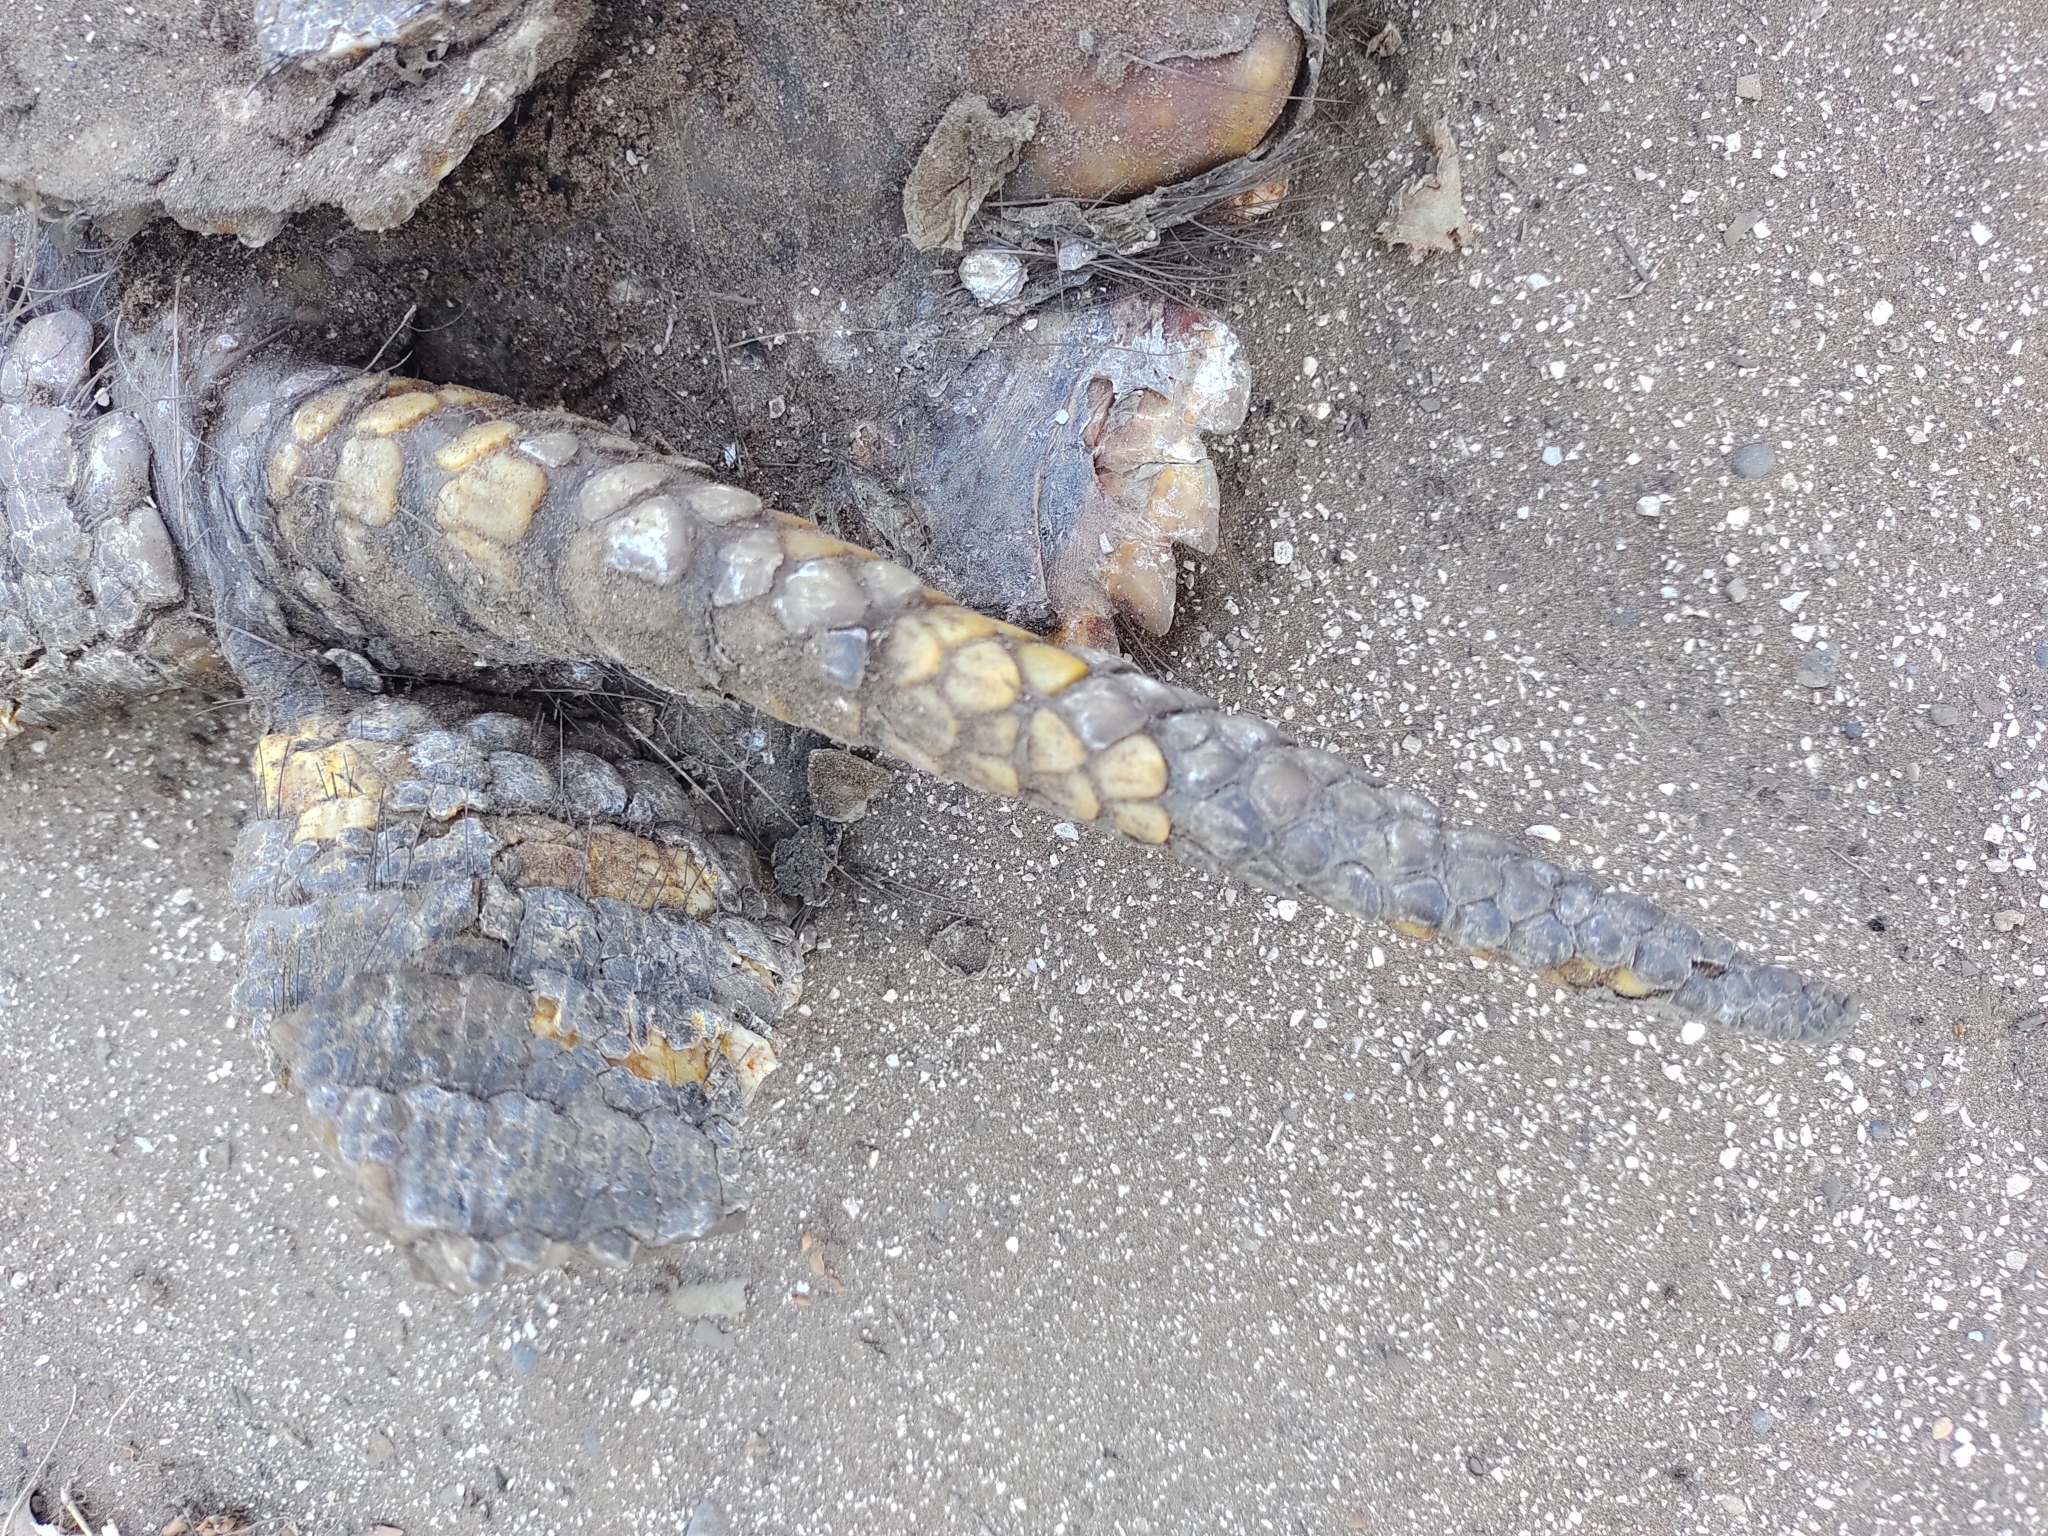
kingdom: Animalia
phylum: Chordata
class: Mammalia
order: Cingulata
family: Dasypodidae
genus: Chaetophractus
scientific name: Chaetophractus villosus
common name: Big hairy armadillo
